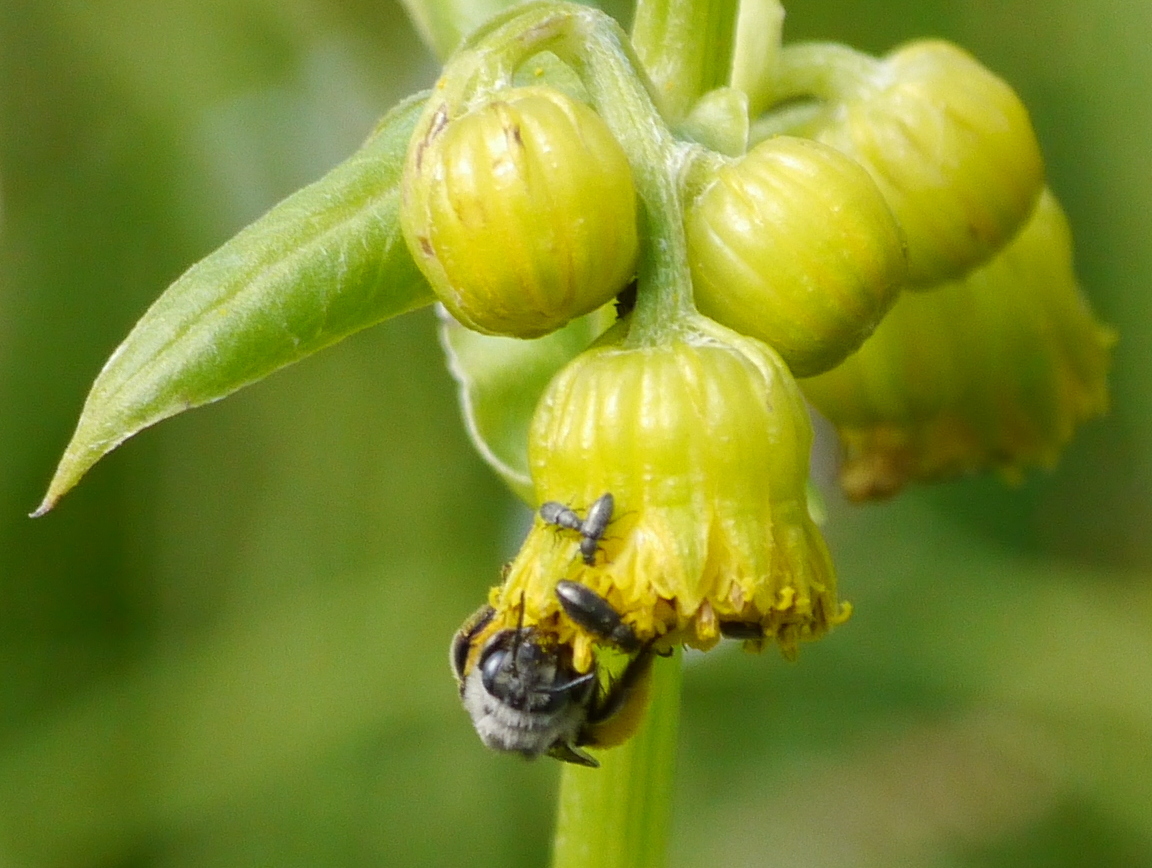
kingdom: Animalia
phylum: Arthropoda
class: Insecta
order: Hymenoptera
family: Apidae
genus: Melissodes
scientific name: Melissodes
